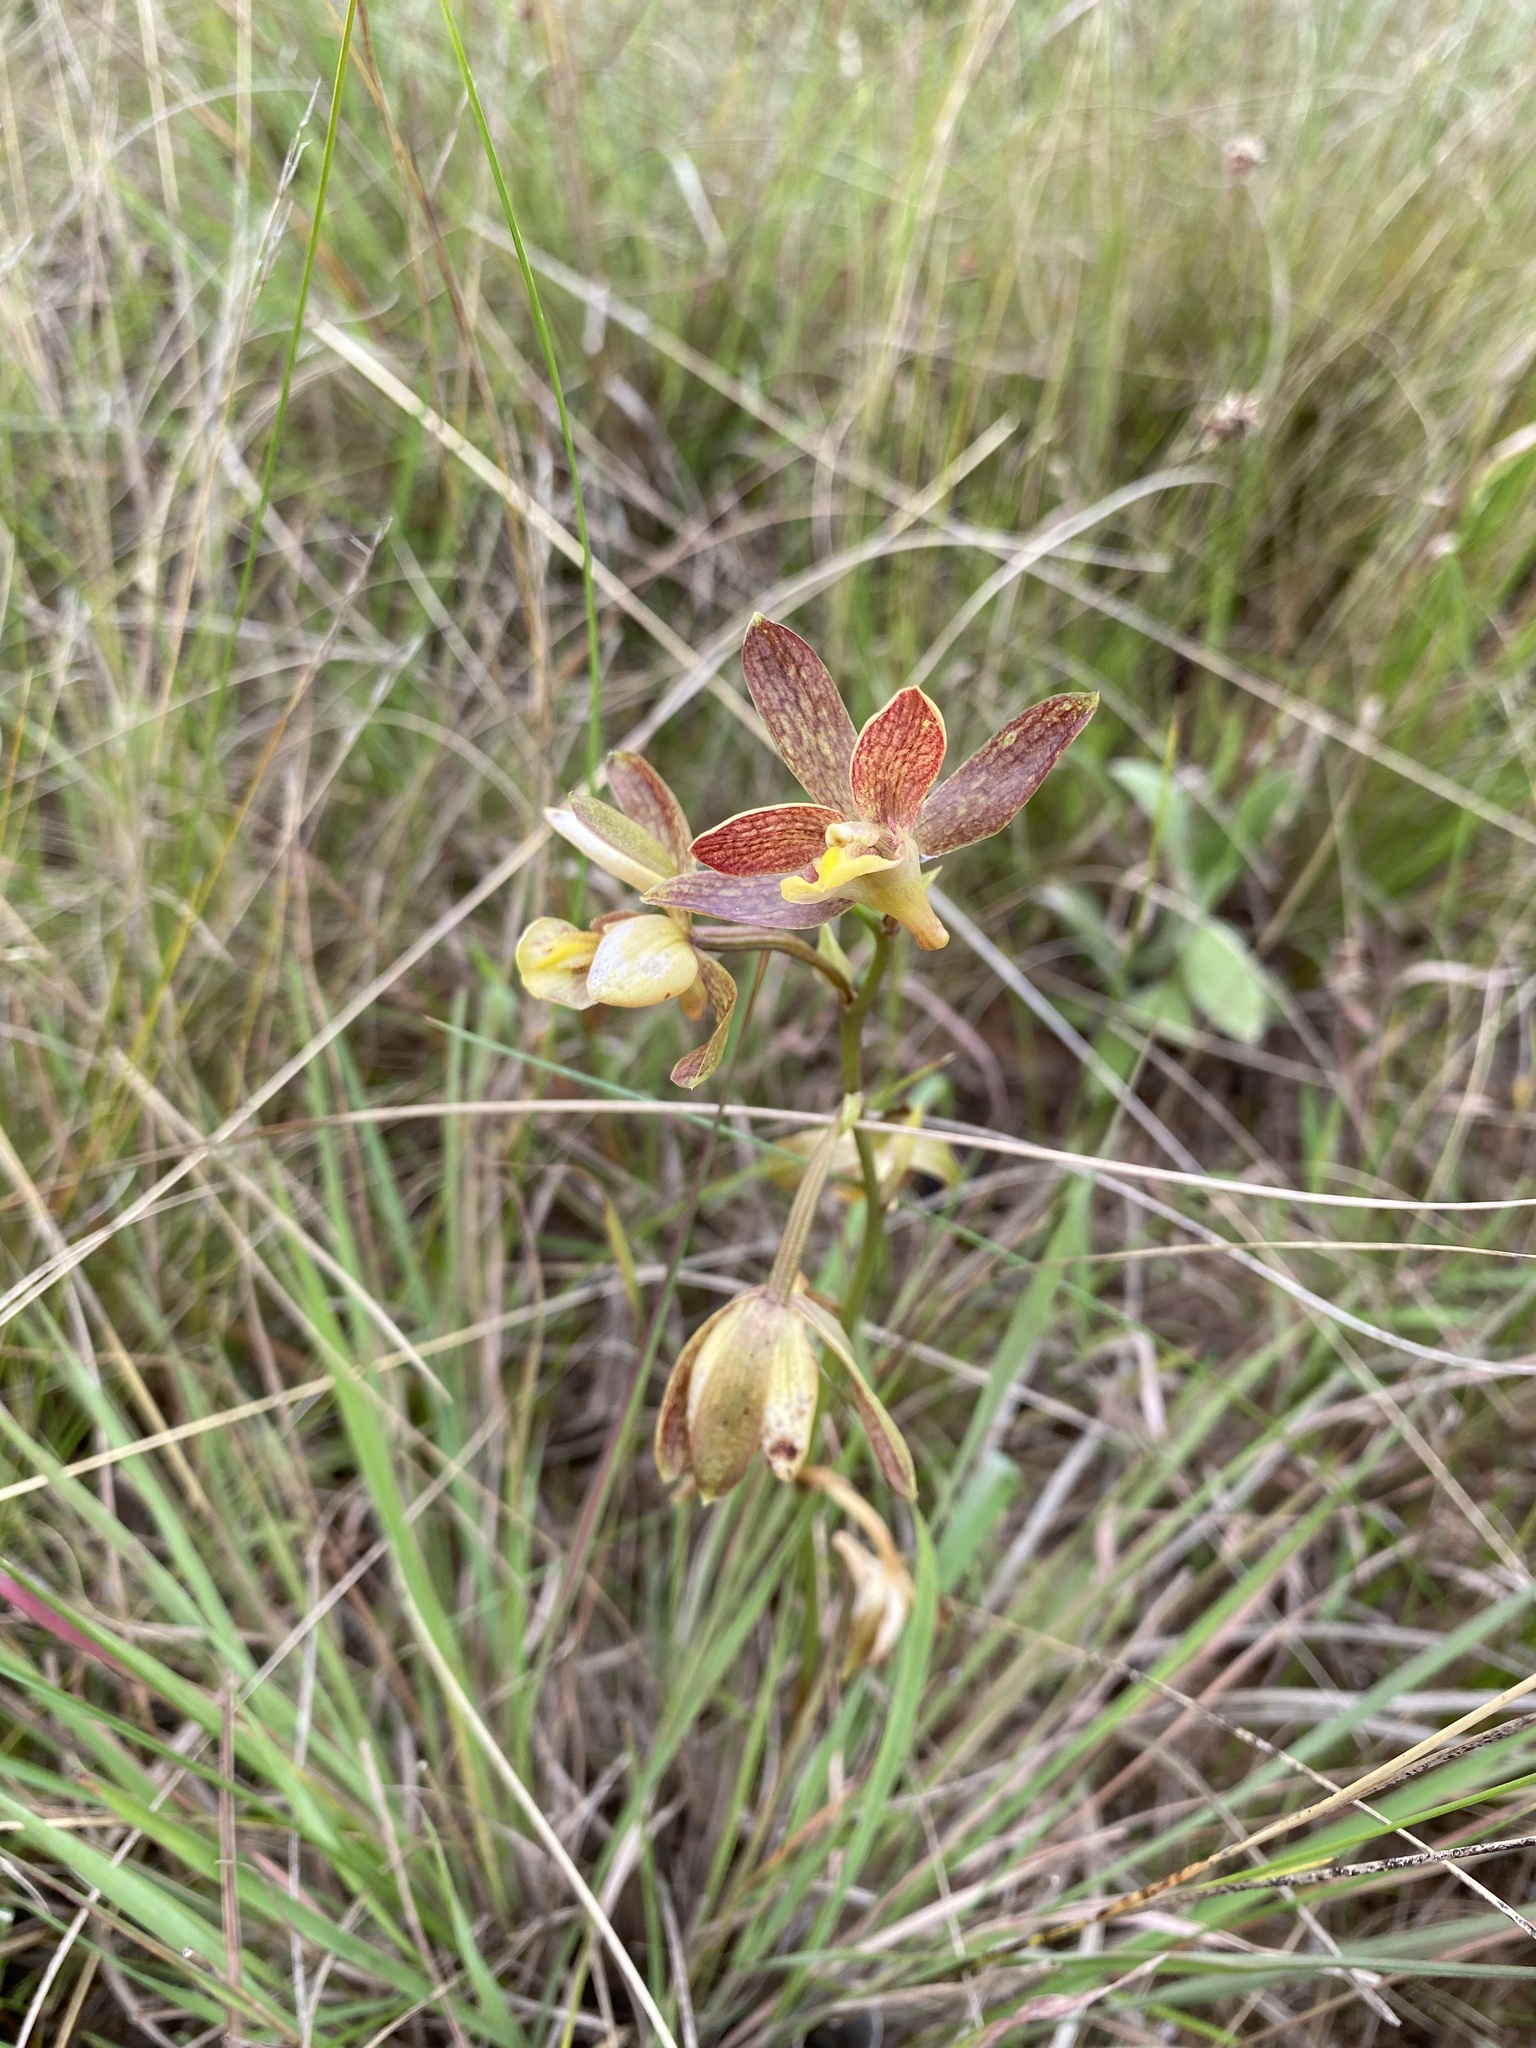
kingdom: Plantae
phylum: Tracheophyta
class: Liliopsida
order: Asparagales
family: Orchidaceae
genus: Eulophia
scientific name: Eulophia parviflora
